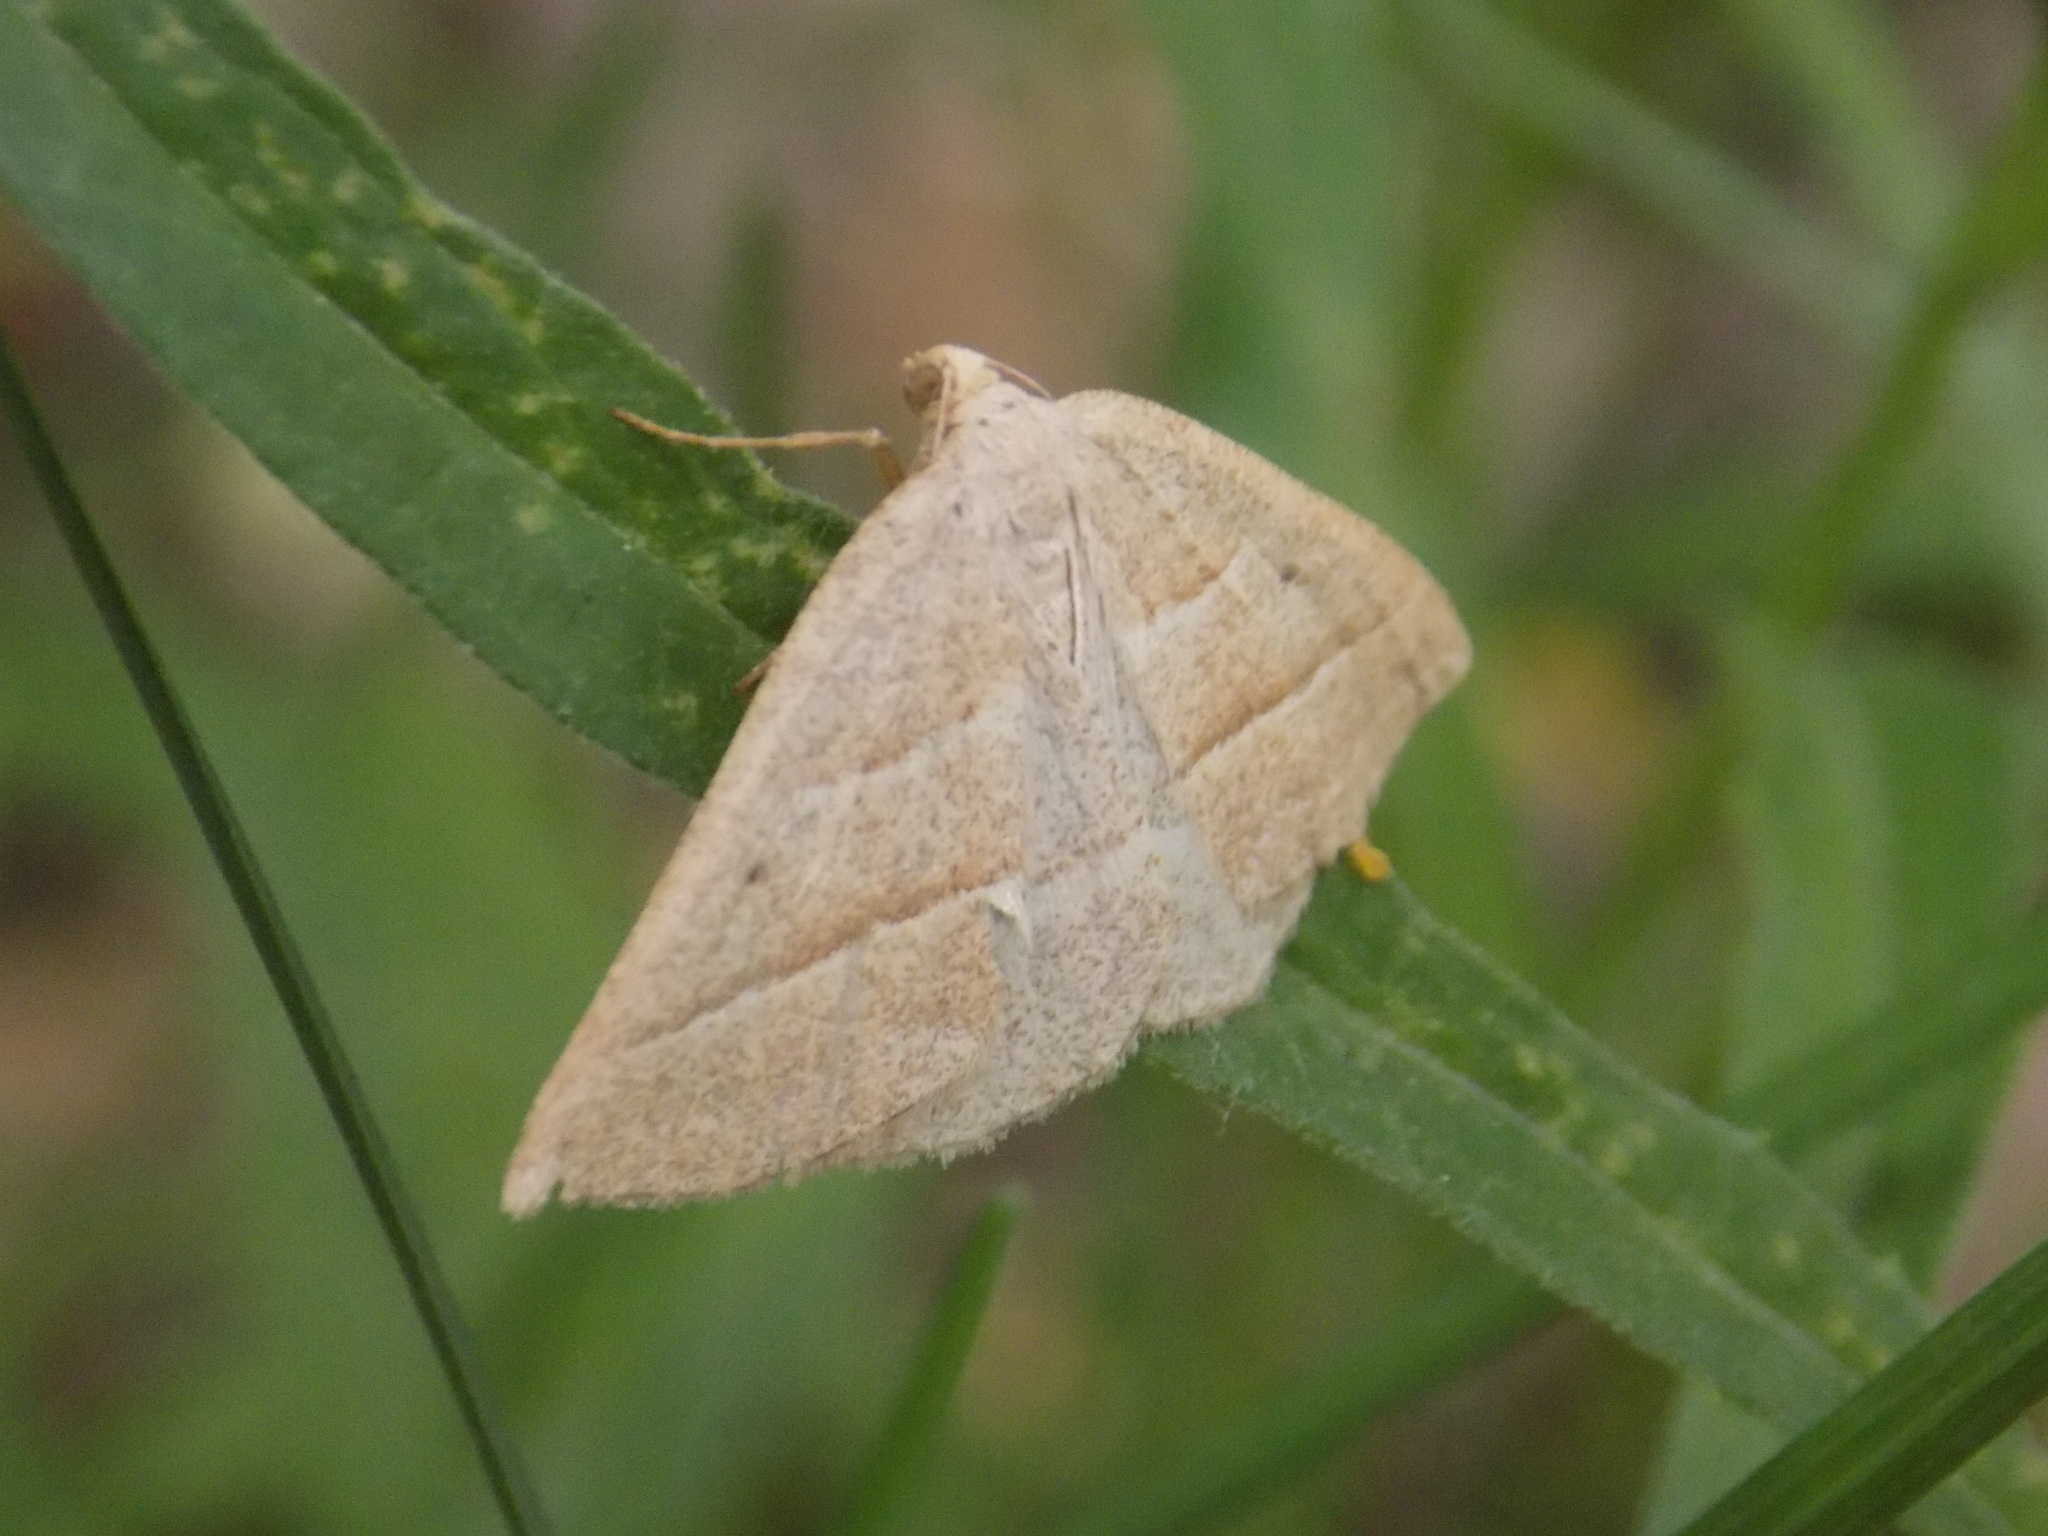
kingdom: Animalia
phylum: Arthropoda
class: Insecta
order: Lepidoptera
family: Pterophoridae
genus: Pterophorus
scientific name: Pterophorus Petrophora chlorosata
